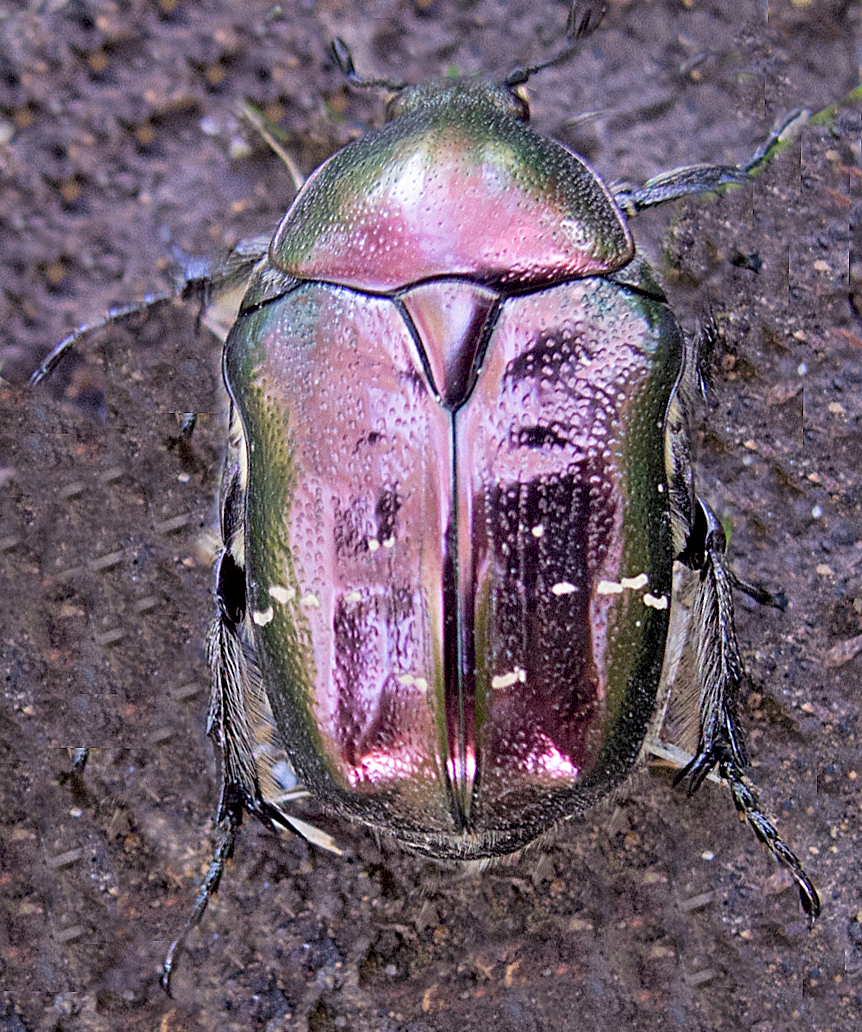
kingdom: Animalia
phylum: Arthropoda
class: Insecta
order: Coleoptera
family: Scarabaeidae
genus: Cetonia
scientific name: Cetonia aurata
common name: Rose chafer
